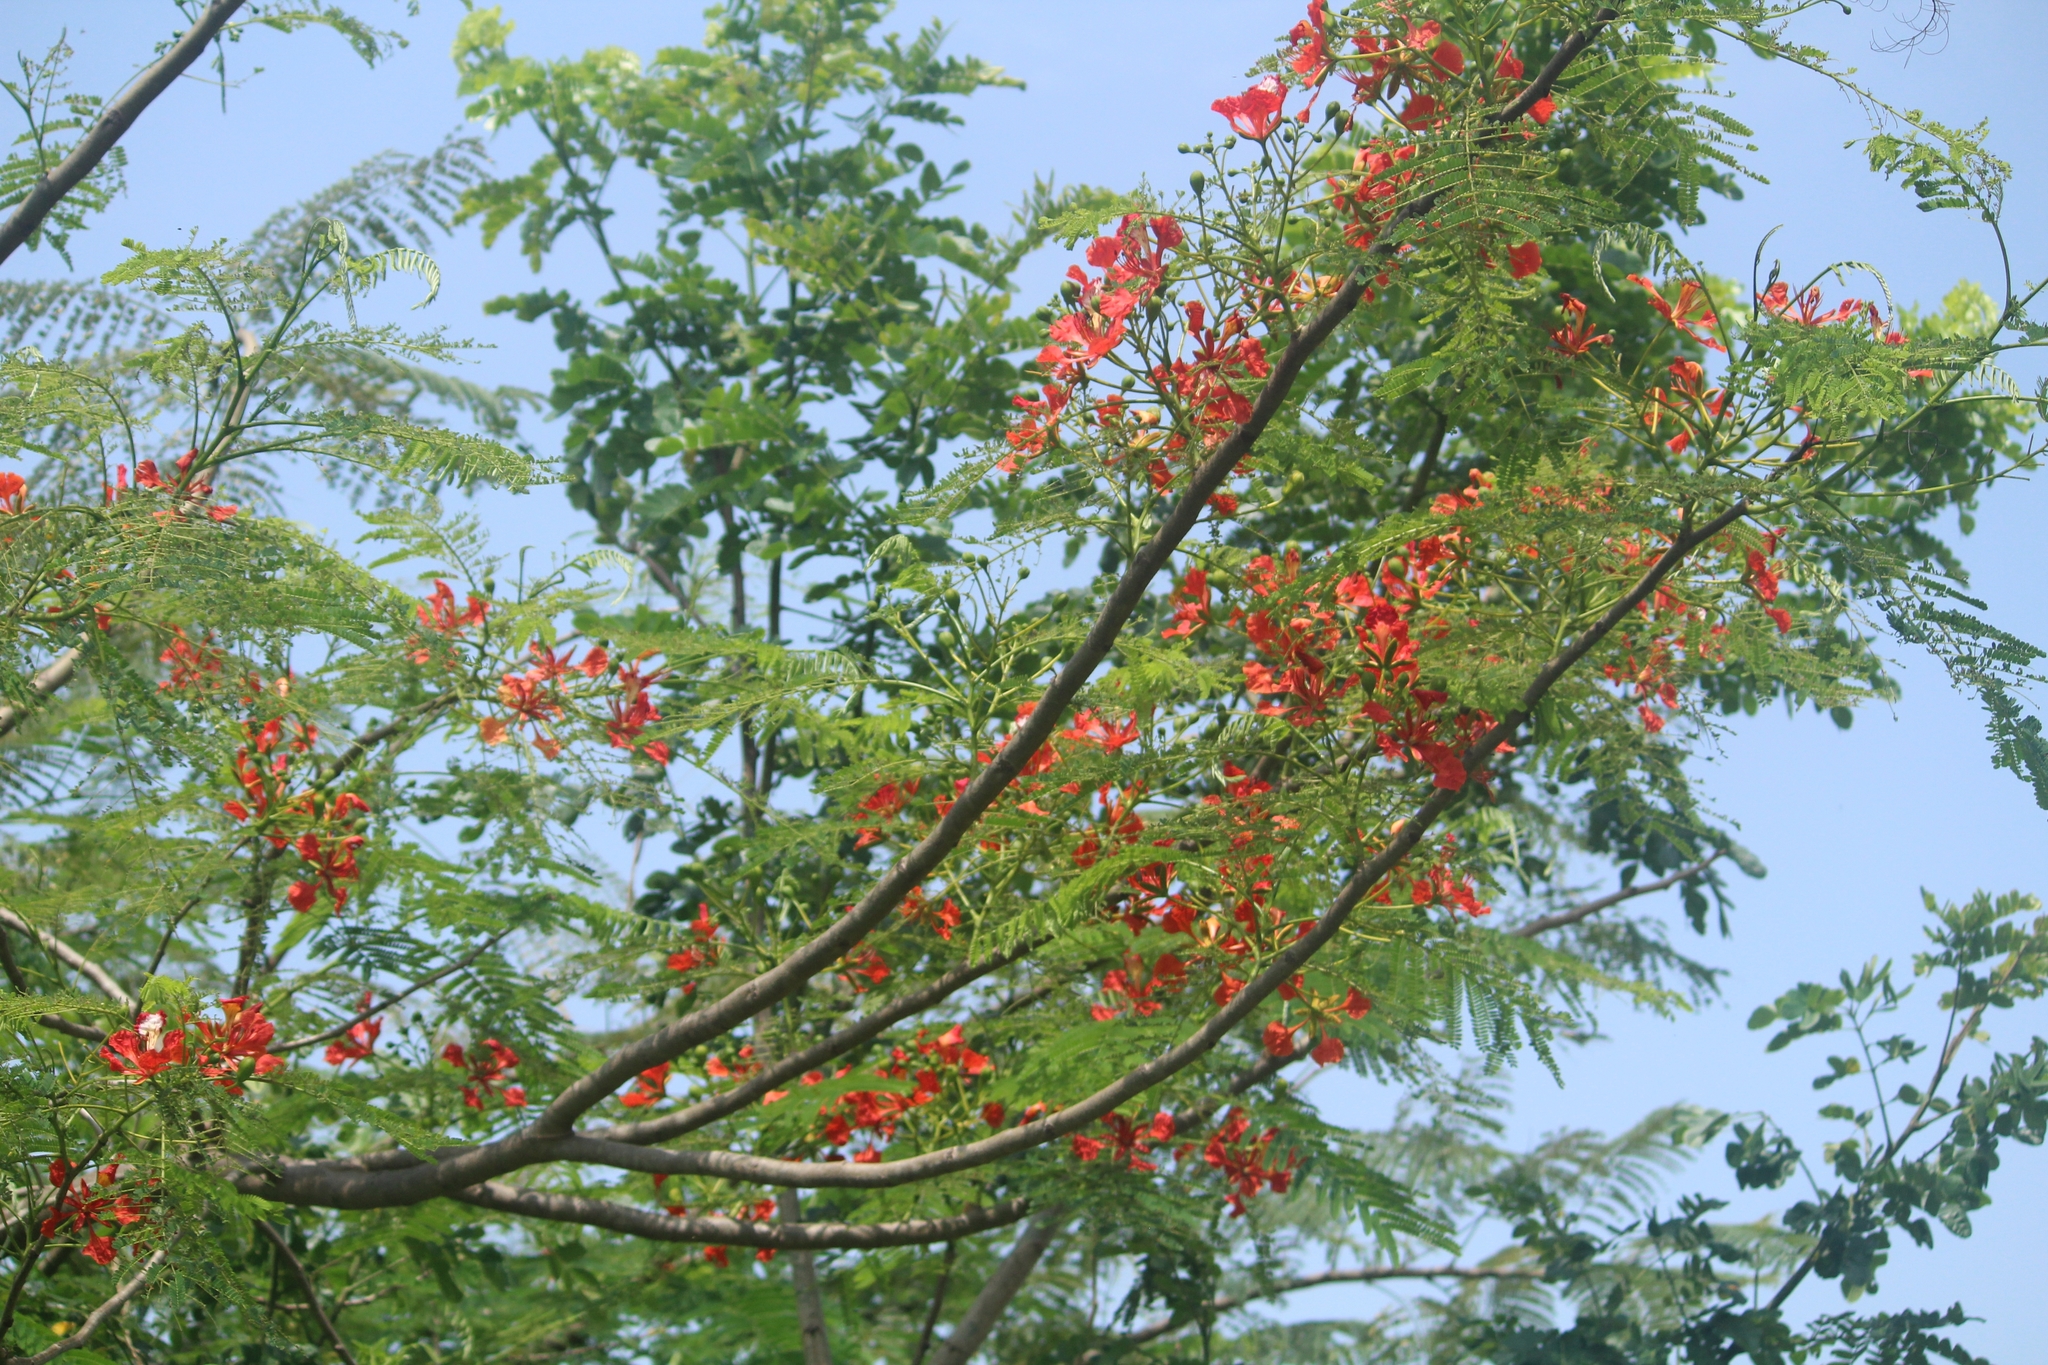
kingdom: Plantae
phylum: Tracheophyta
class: Magnoliopsida
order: Fabales
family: Fabaceae
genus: Delonix
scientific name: Delonix regia
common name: Royal poinciana
